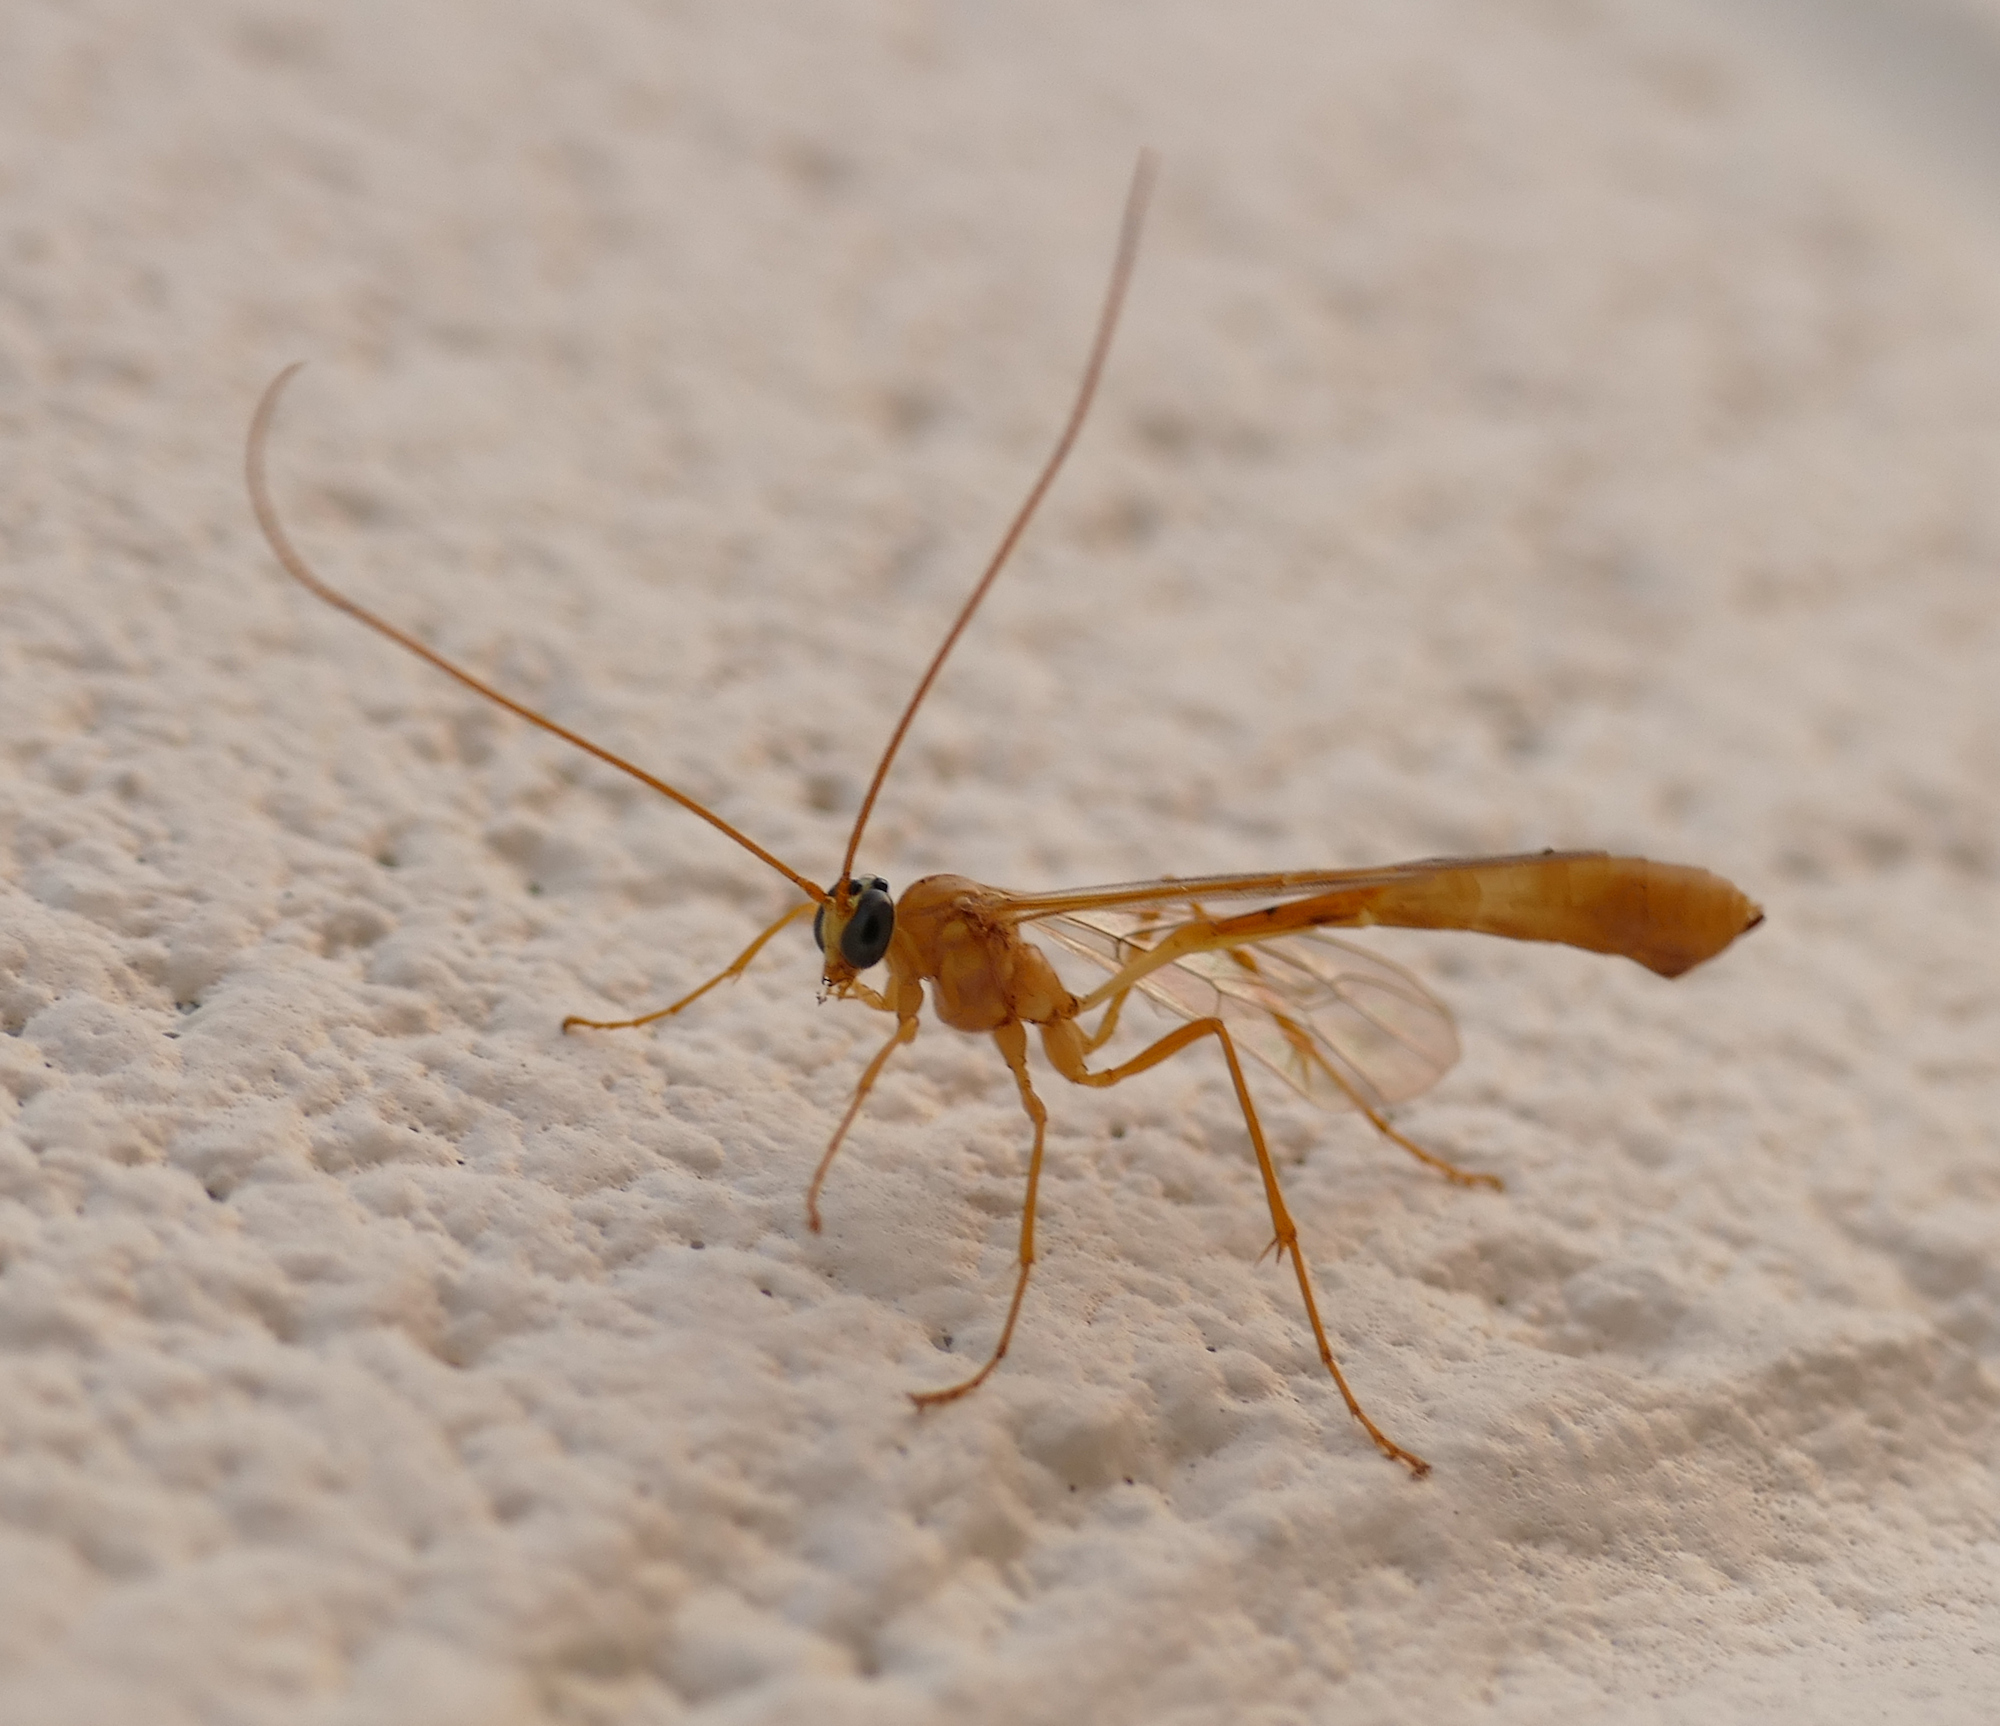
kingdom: Animalia
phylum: Arthropoda
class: Insecta
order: Hymenoptera
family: Ichneumonidae
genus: Enicospilus
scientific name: Enicospilus guatemalensis
